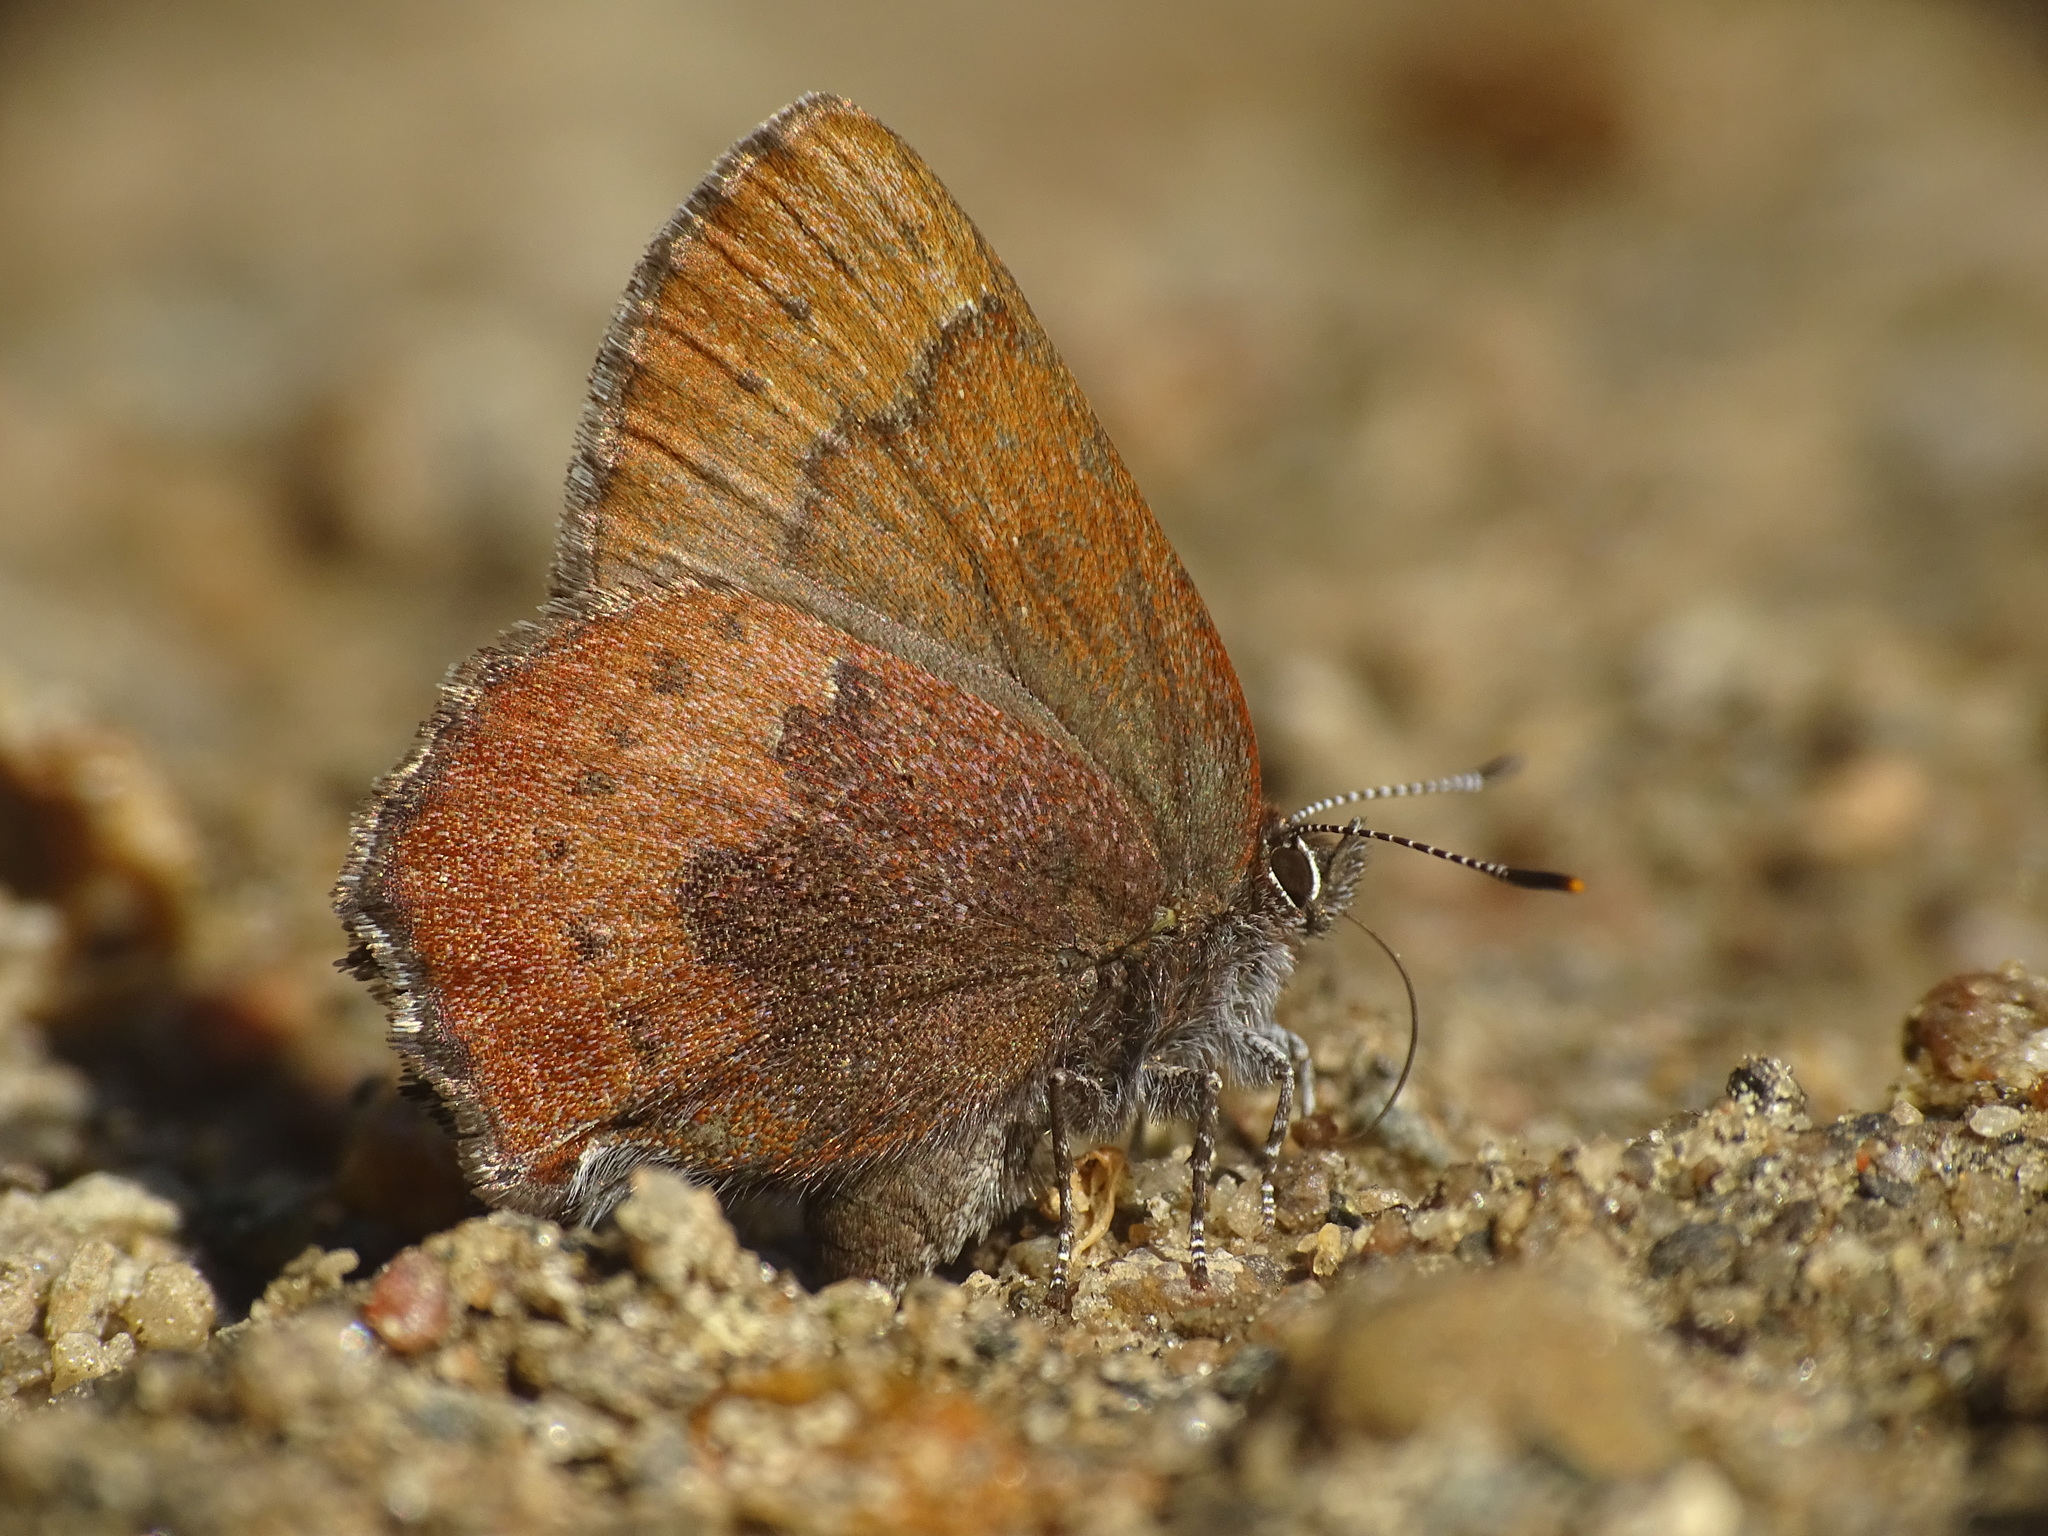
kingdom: Animalia
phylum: Arthropoda
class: Insecta
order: Lepidoptera
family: Lycaenidae
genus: Incisalia
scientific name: Incisalia irioides
